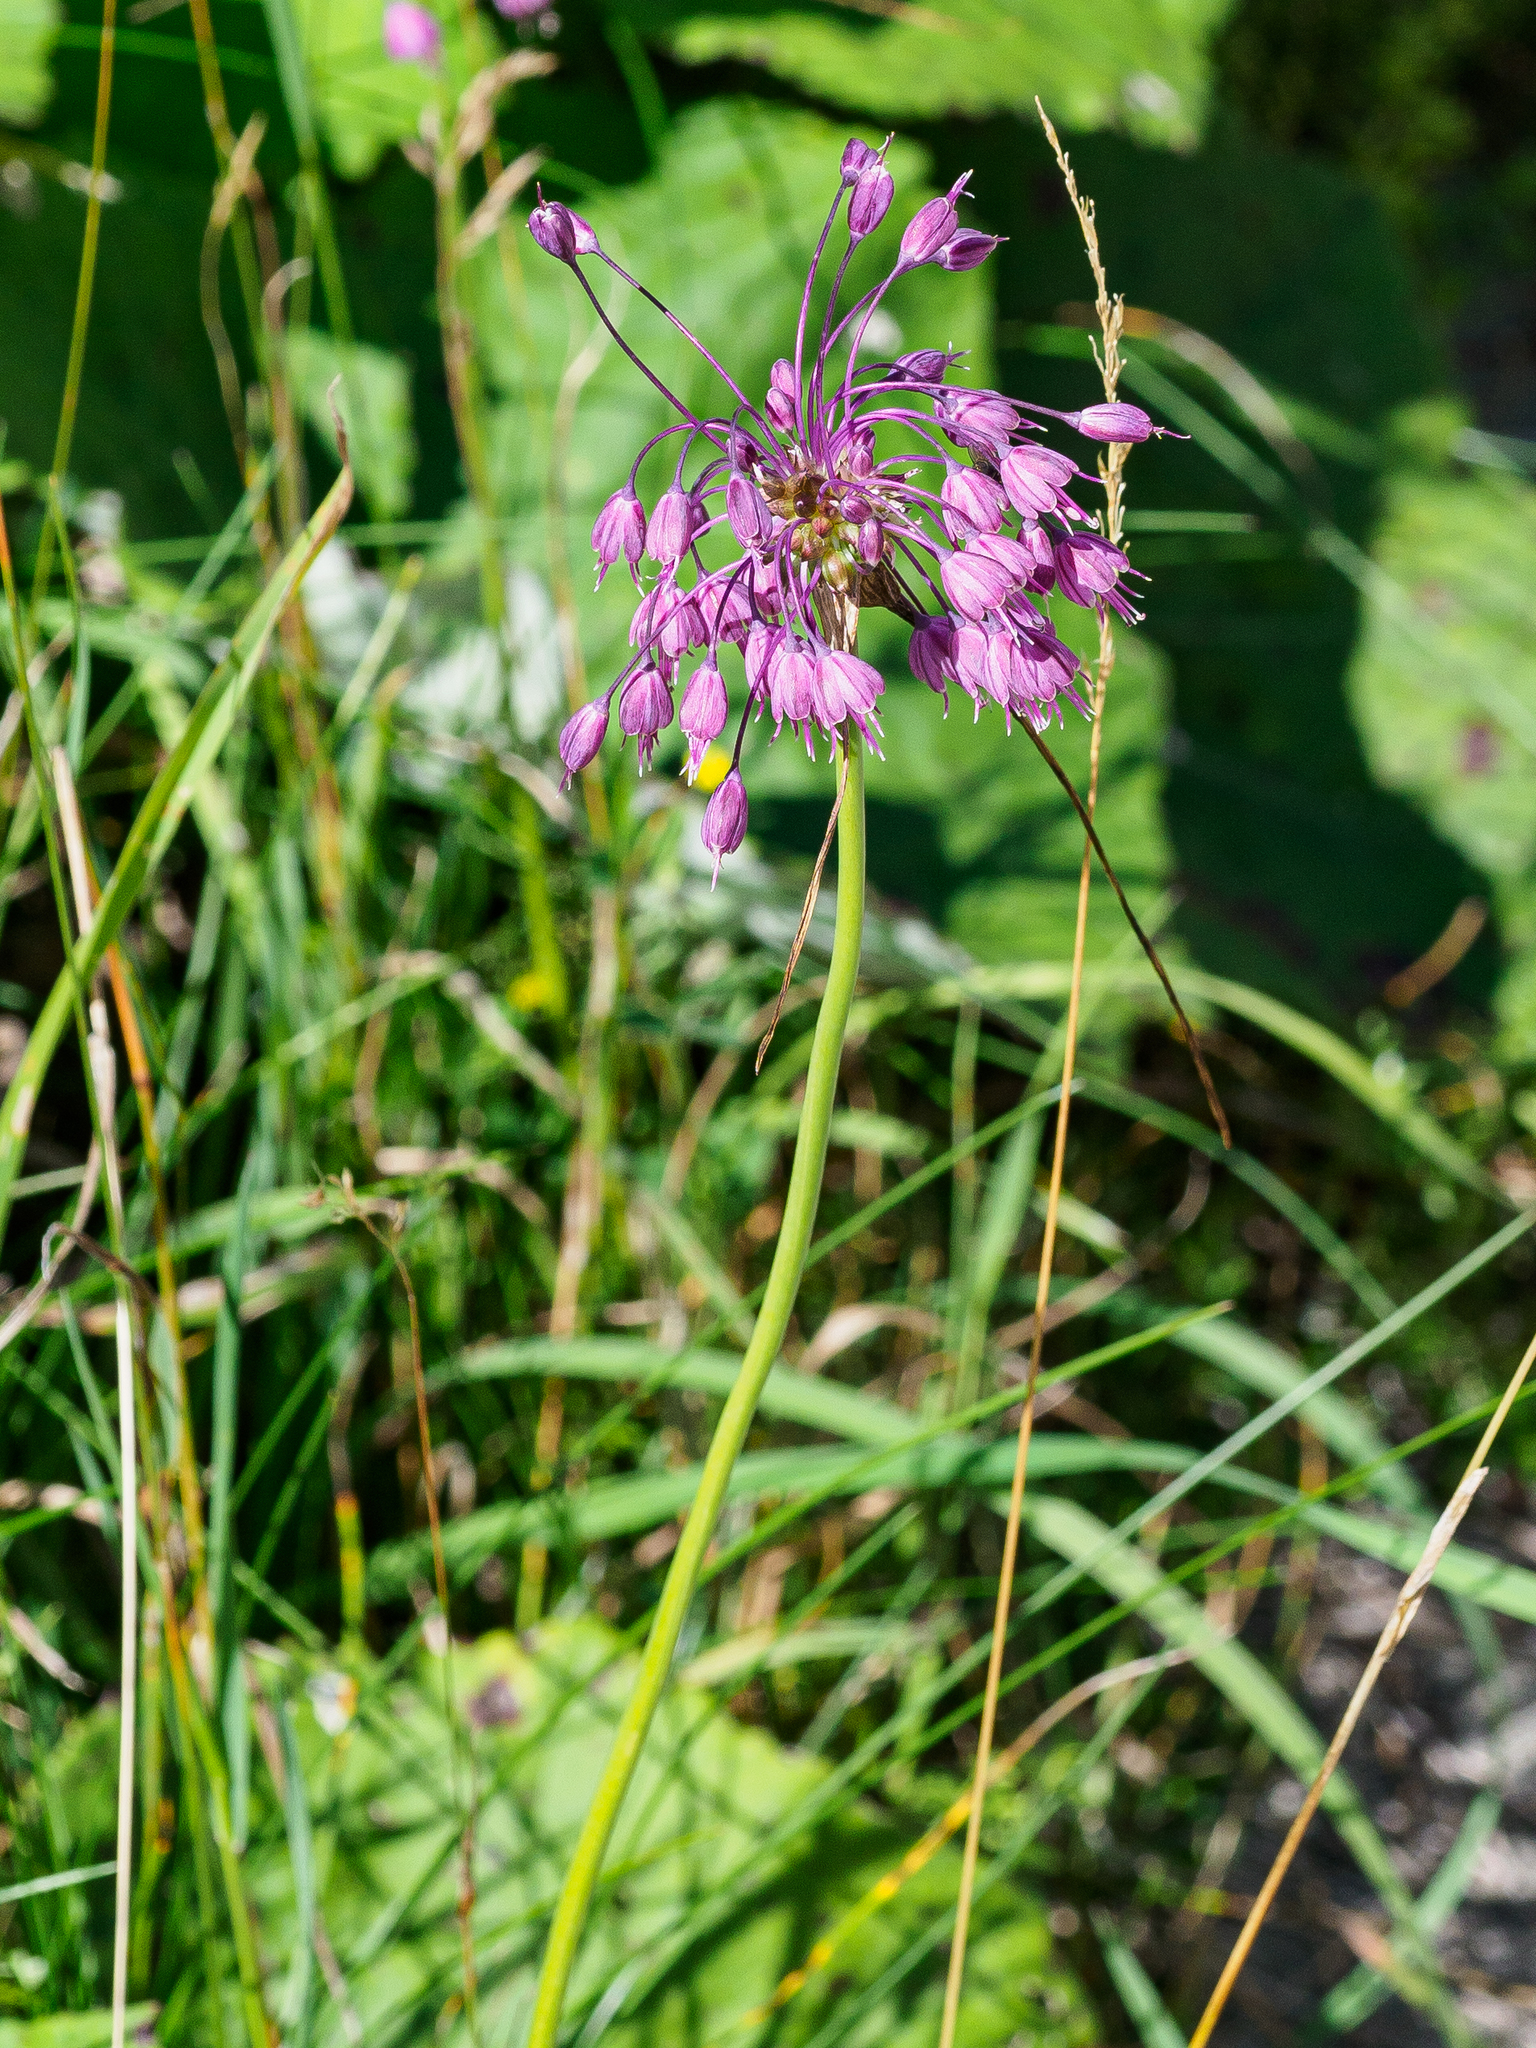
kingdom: Plantae
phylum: Tracheophyta
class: Liliopsida
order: Asparagales
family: Amaryllidaceae
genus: Allium
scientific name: Allium carinatum
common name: Keeled garlic
